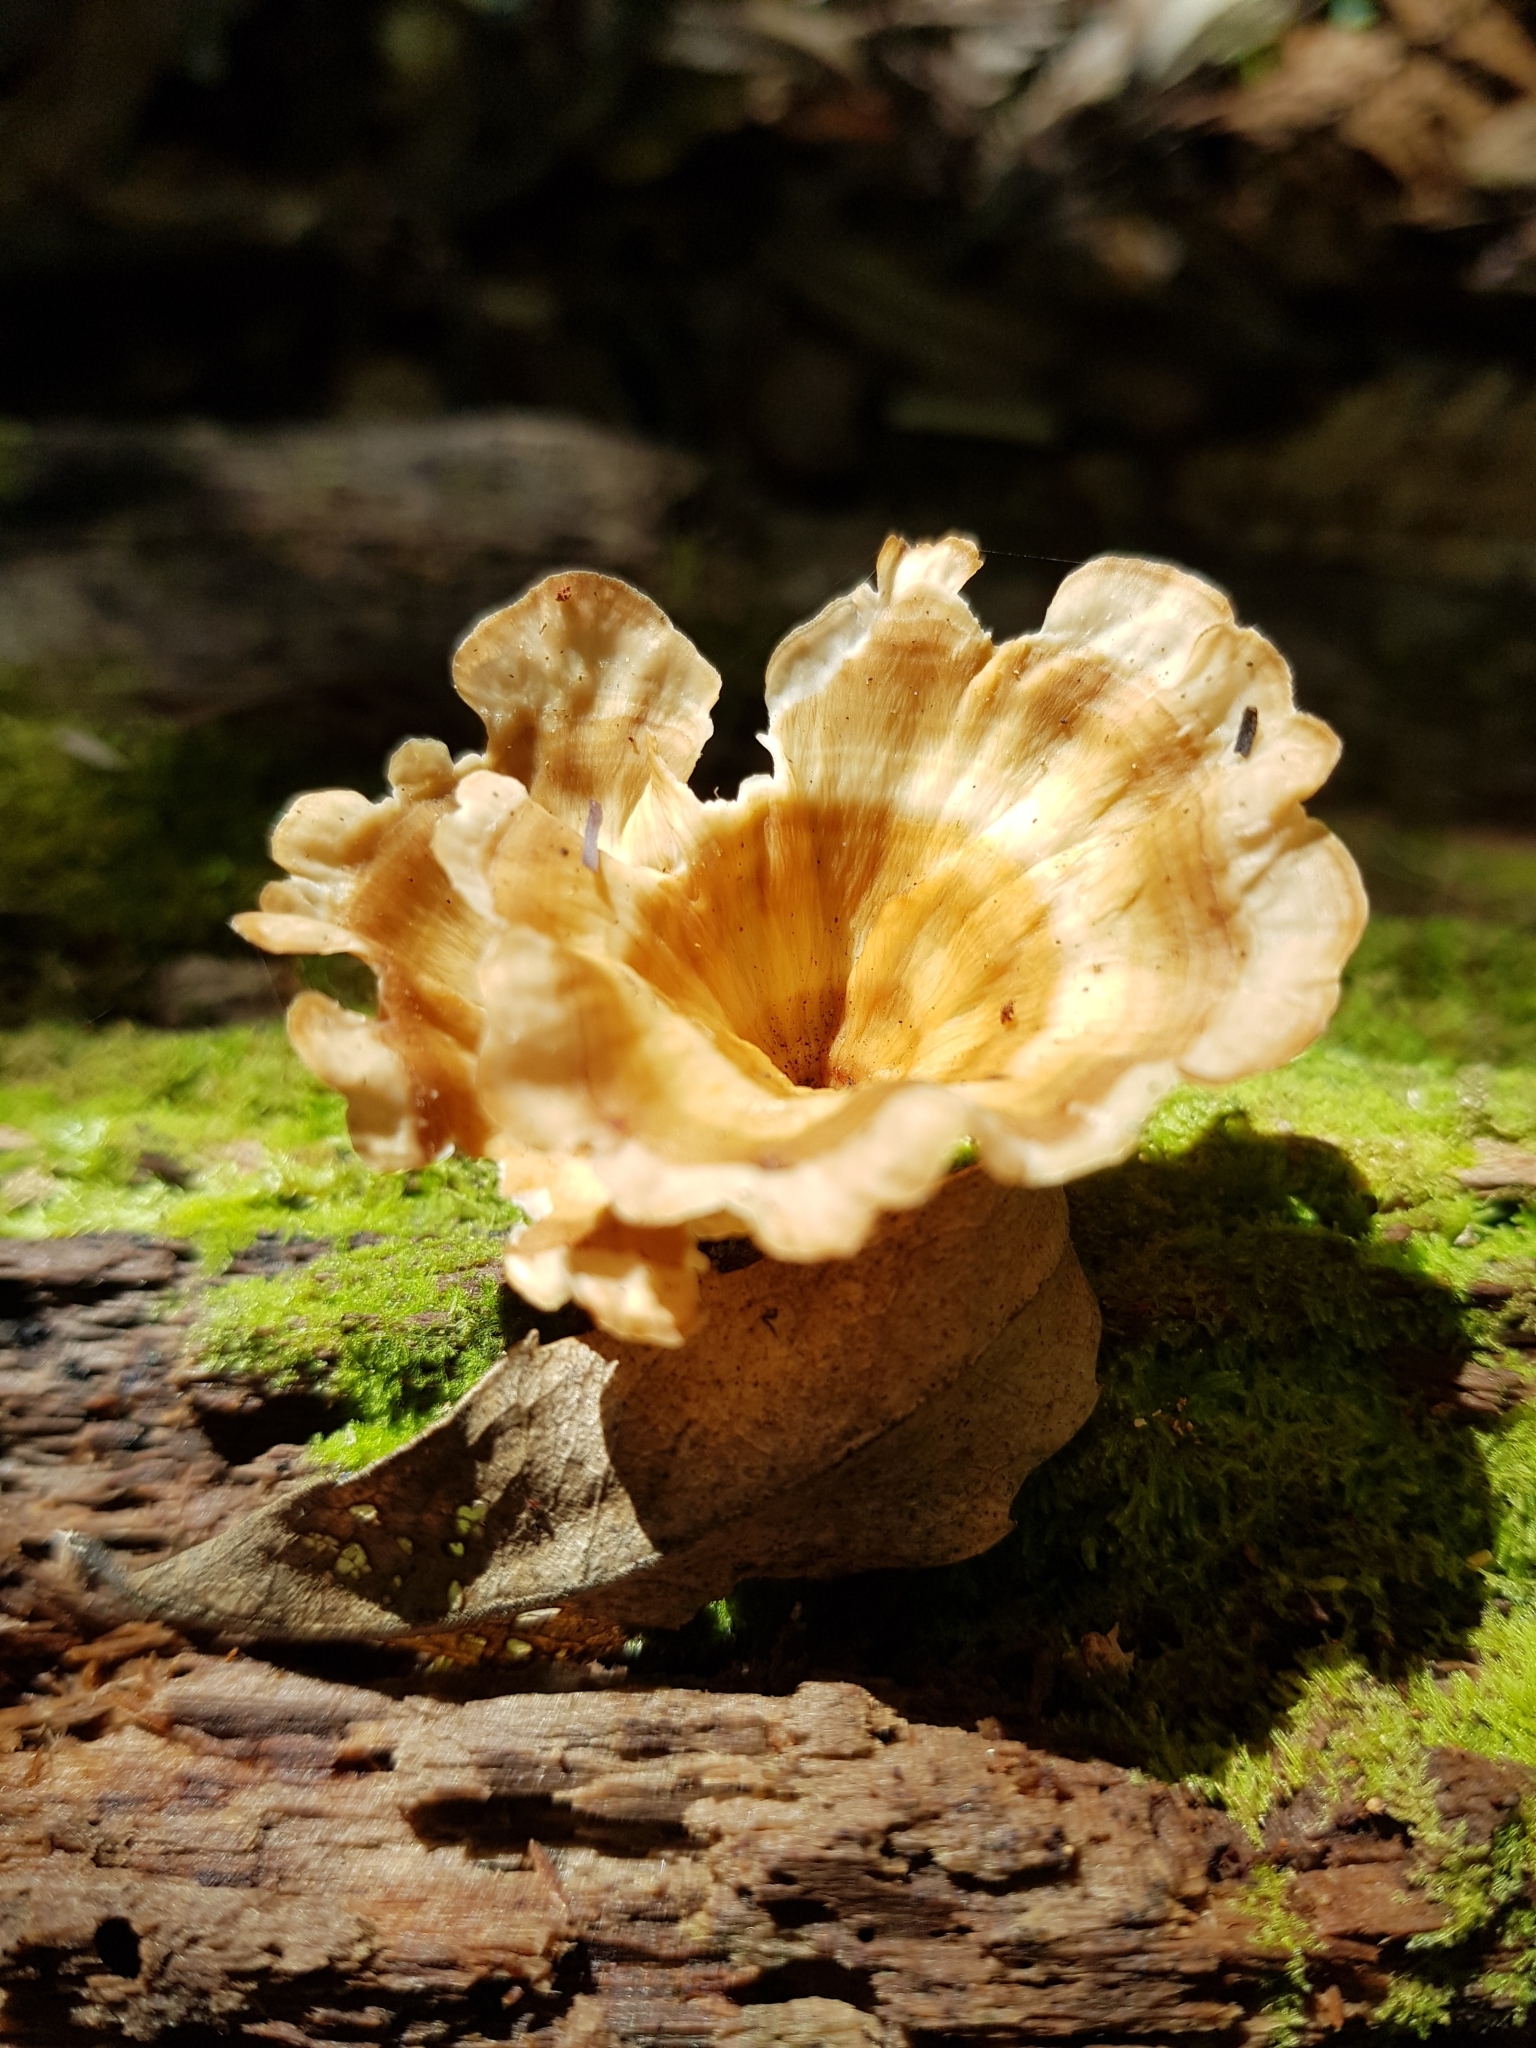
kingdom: Fungi
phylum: Basidiomycota
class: Agaricomycetes
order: Polyporales
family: Podoscyphaceae
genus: Podoscypha
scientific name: Podoscypha petalodes
